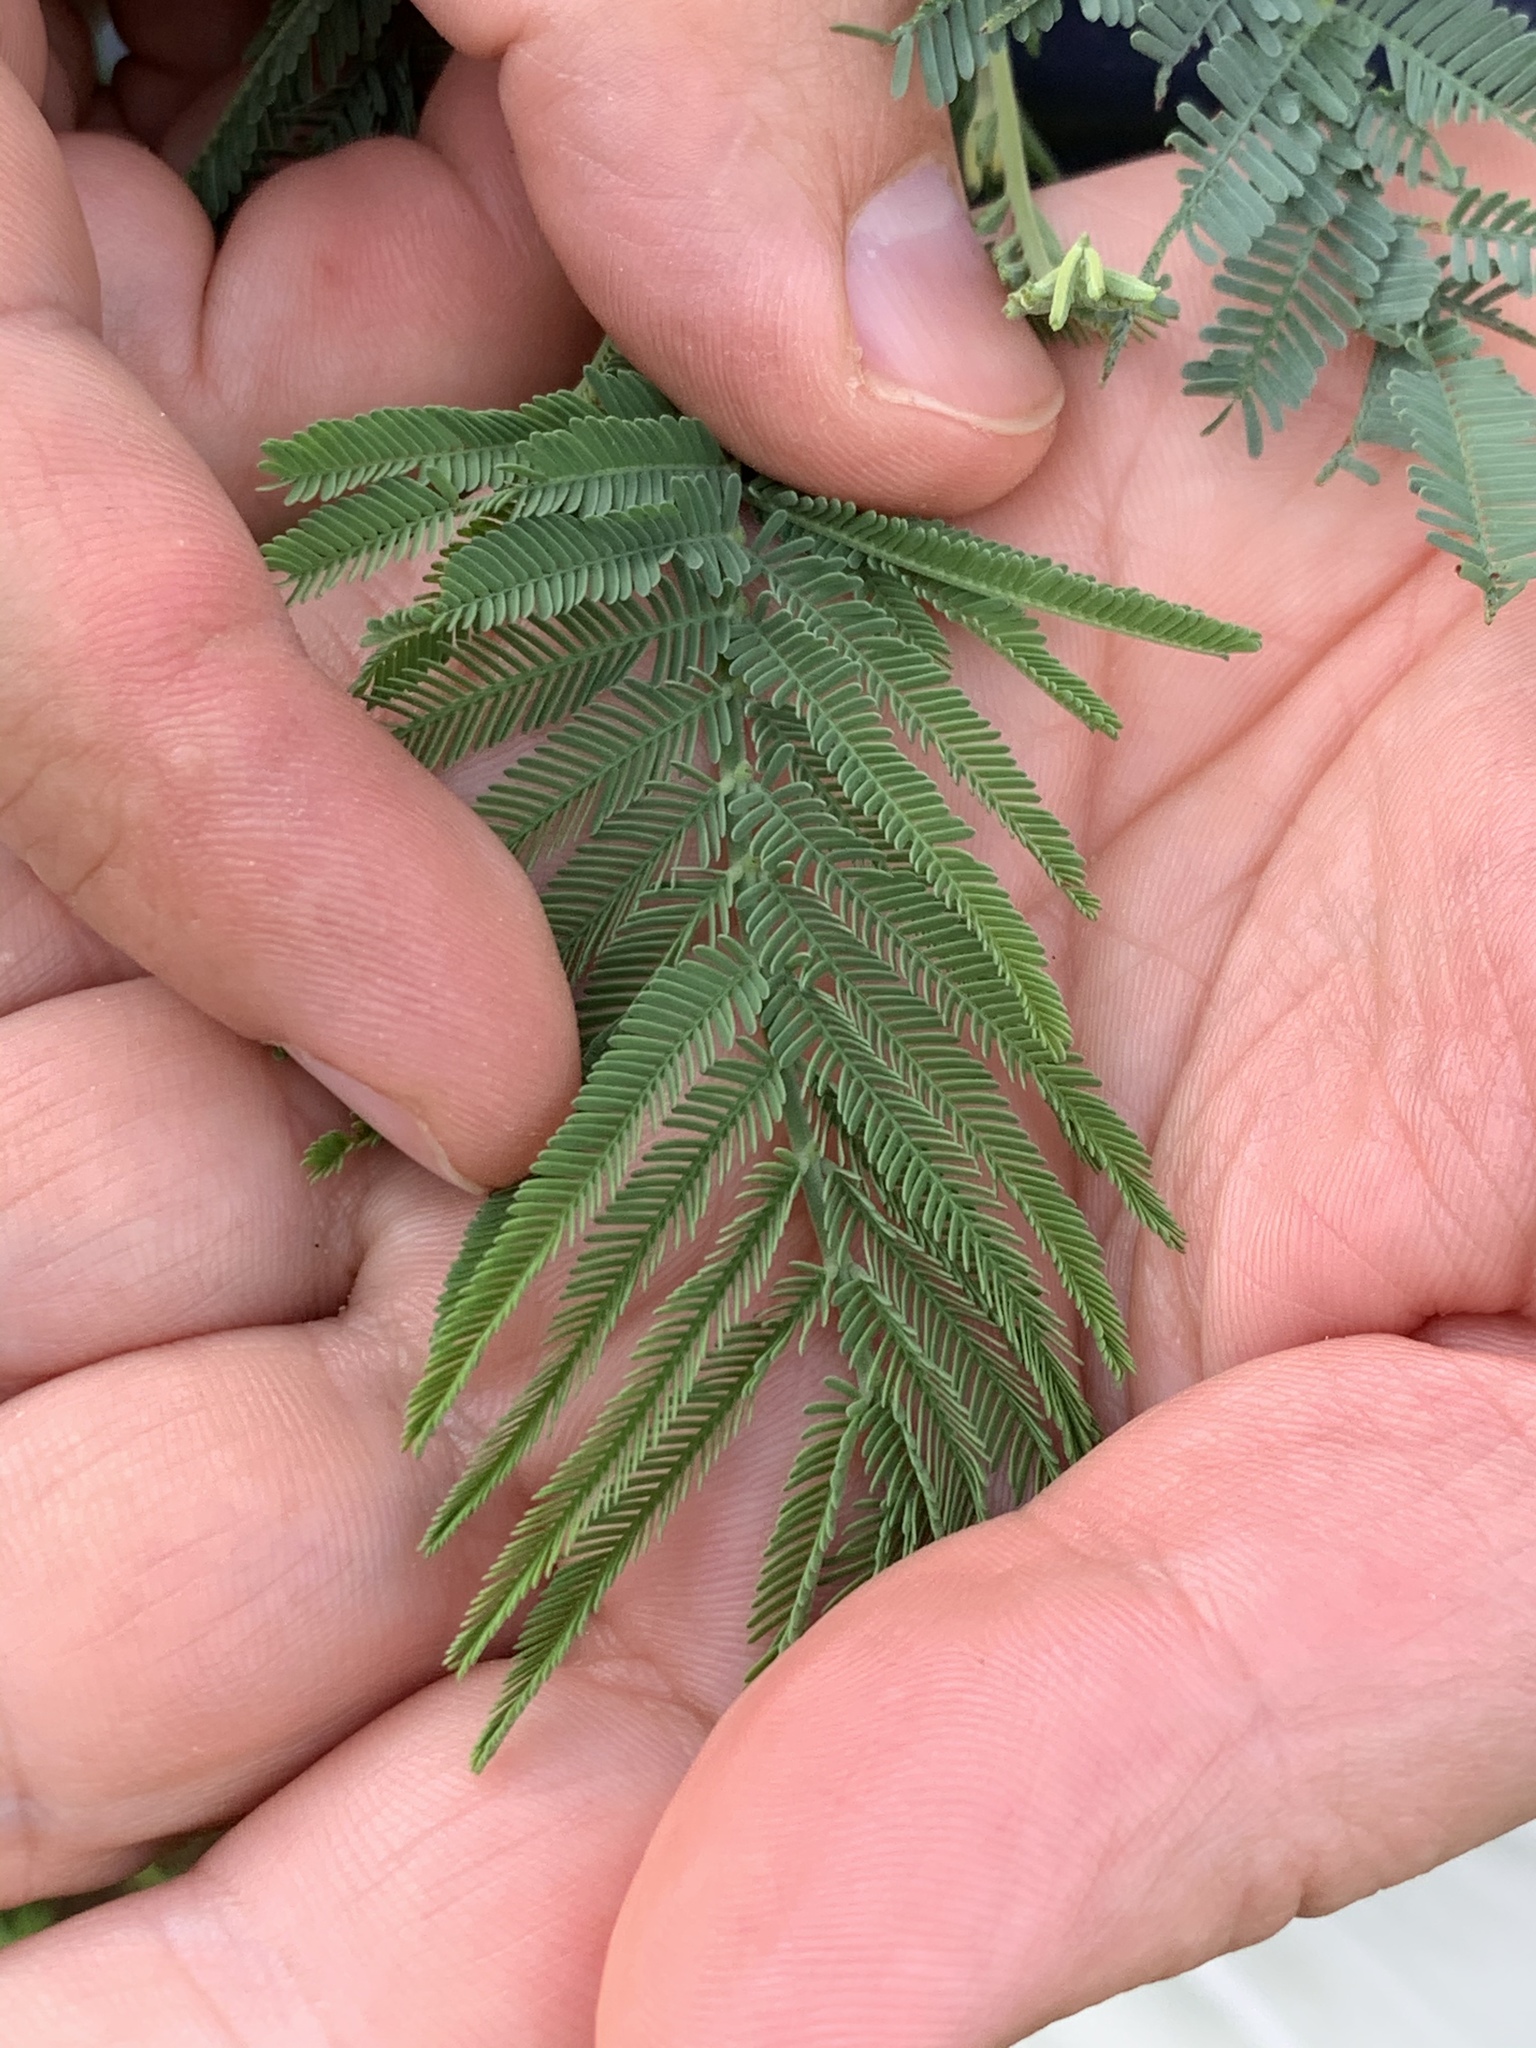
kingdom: Plantae
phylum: Tracheophyta
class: Magnoliopsida
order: Fabales
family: Fabaceae
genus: Acacia
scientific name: Acacia dealbata
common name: Silver wattle
